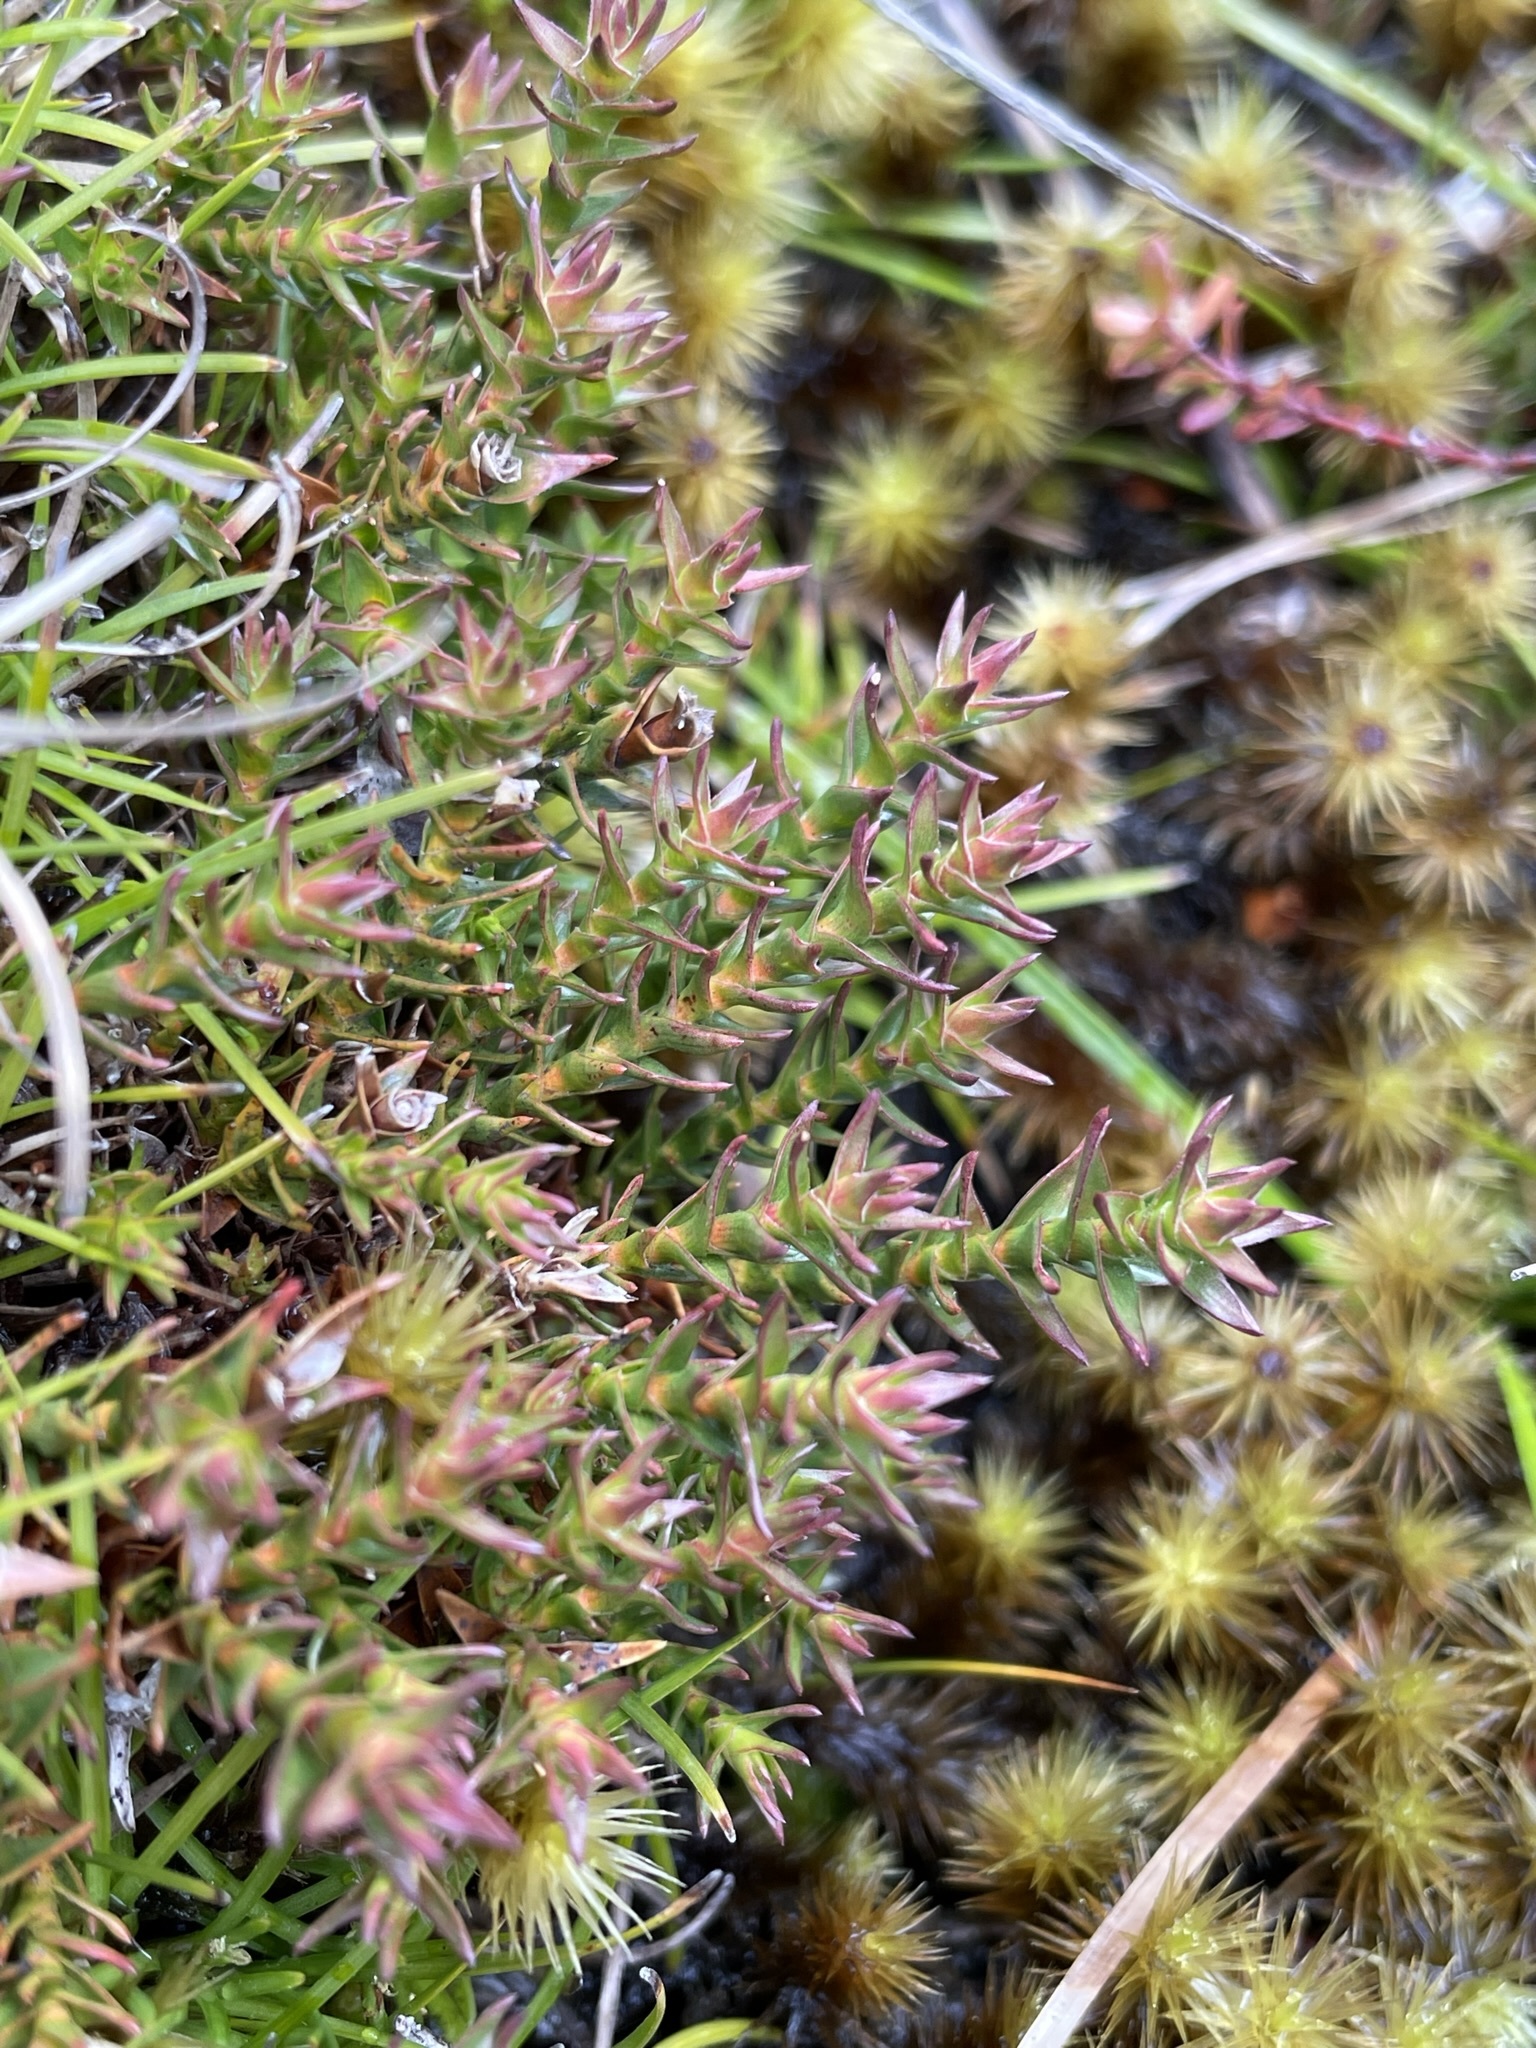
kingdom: Plantae
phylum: Tracheophyta
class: Magnoliopsida
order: Ericales
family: Ericaceae
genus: Sprengelia
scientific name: Sprengelia minima
